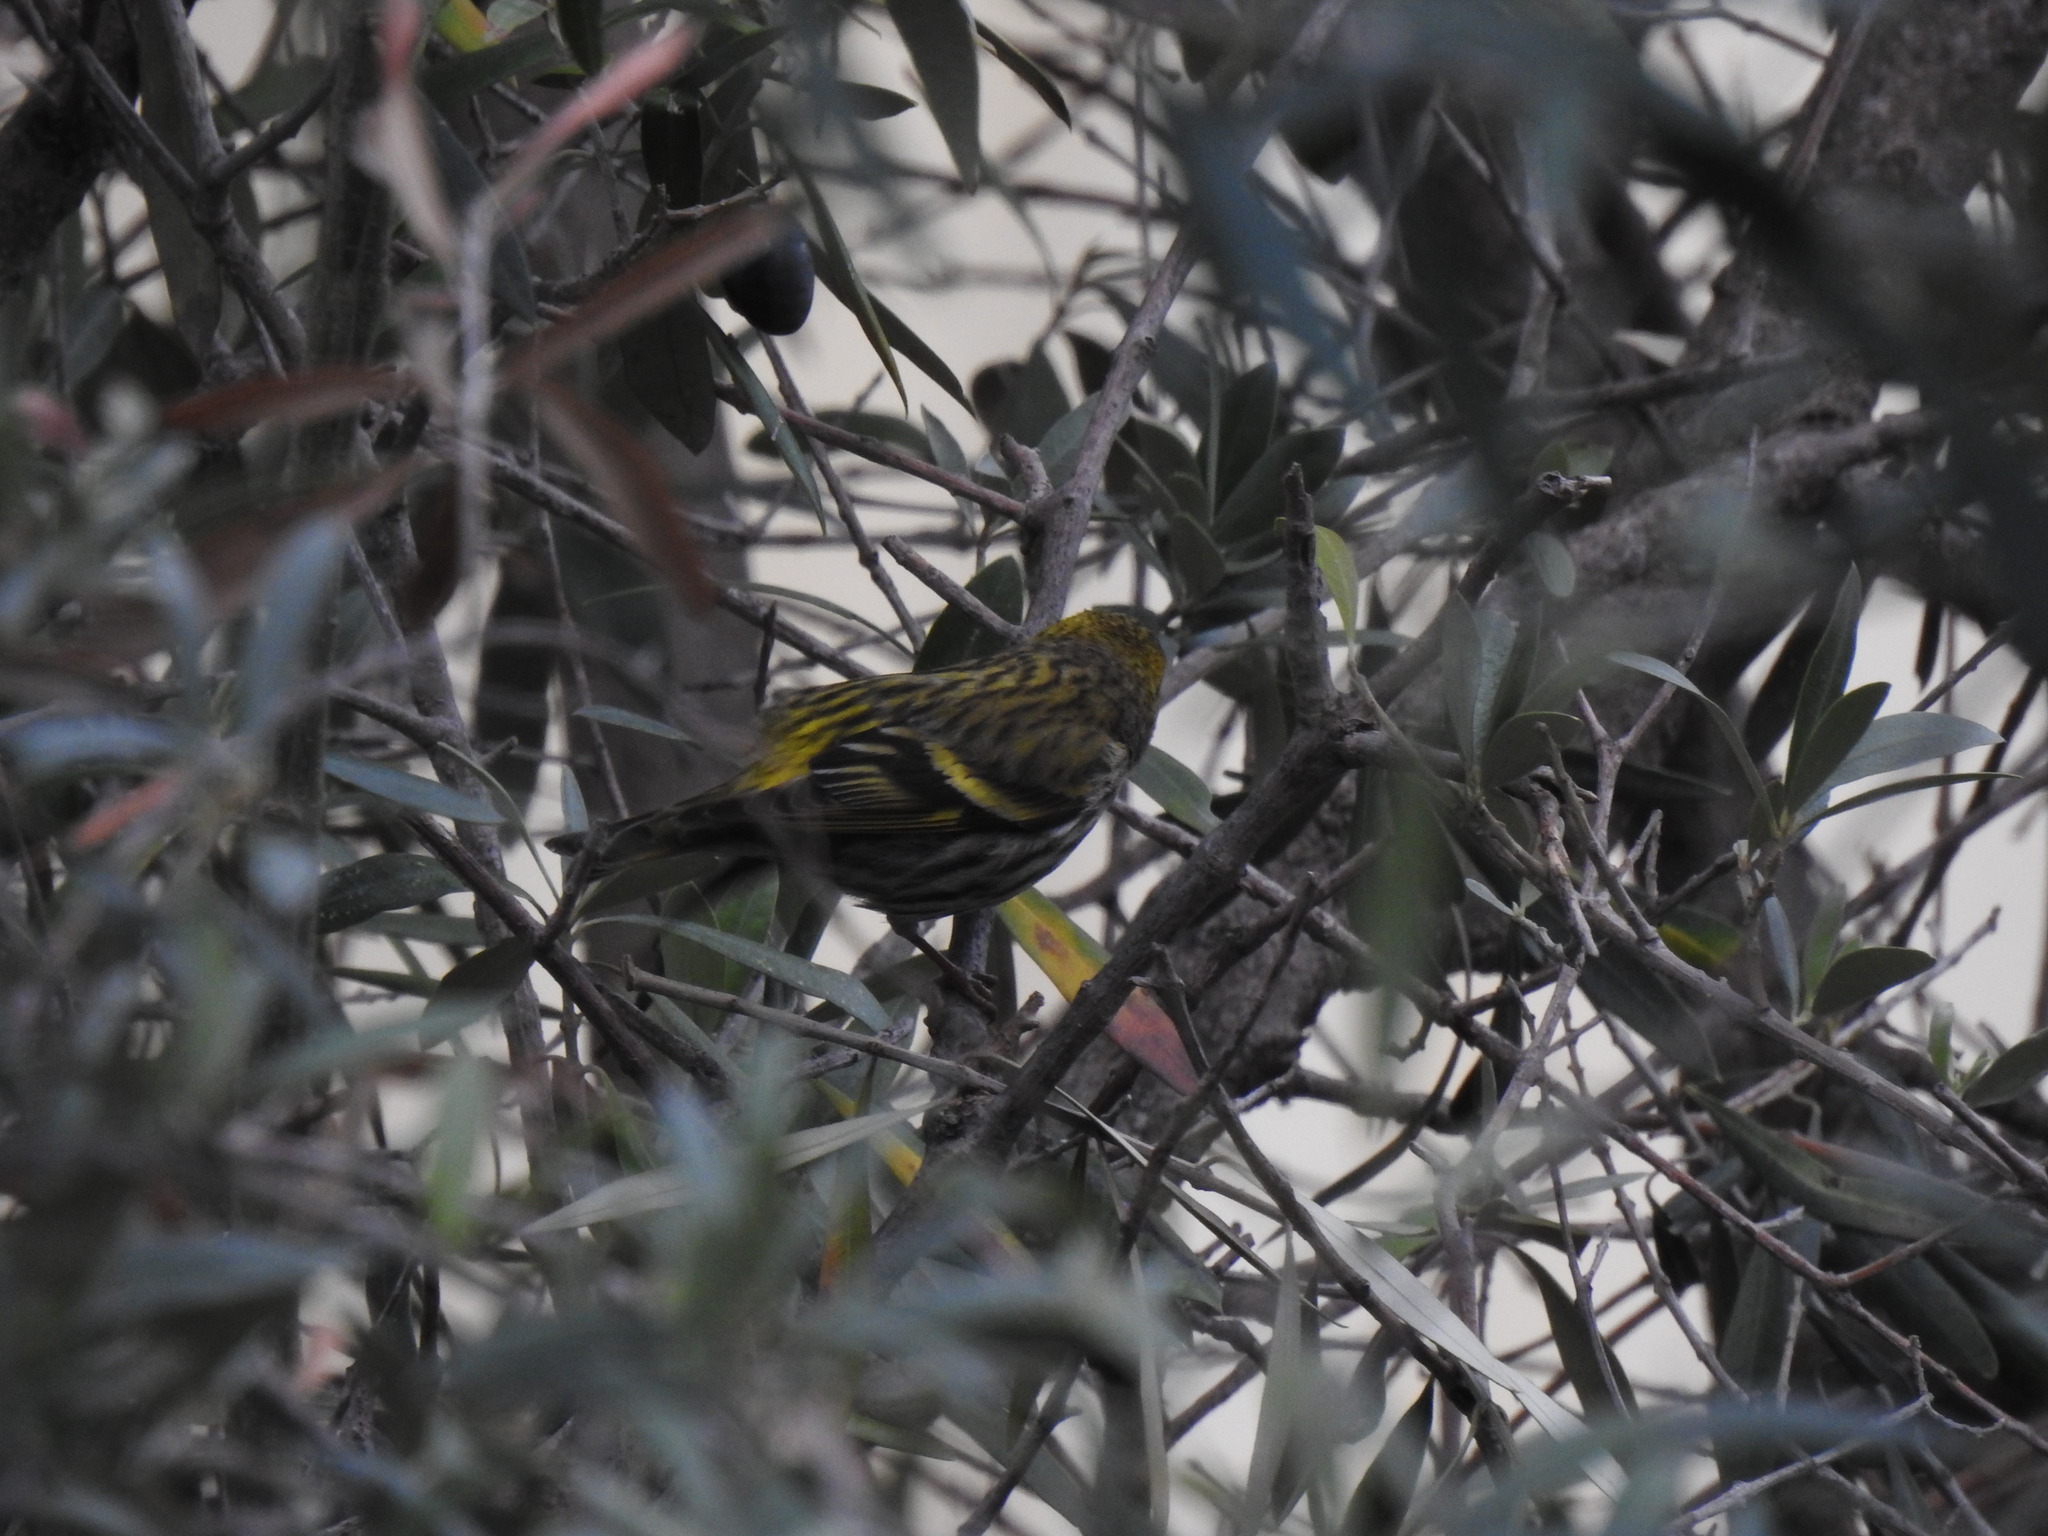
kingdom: Animalia
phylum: Chordata
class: Aves
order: Passeriformes
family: Fringillidae
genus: Spinus
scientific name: Spinus spinus
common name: Eurasian siskin
